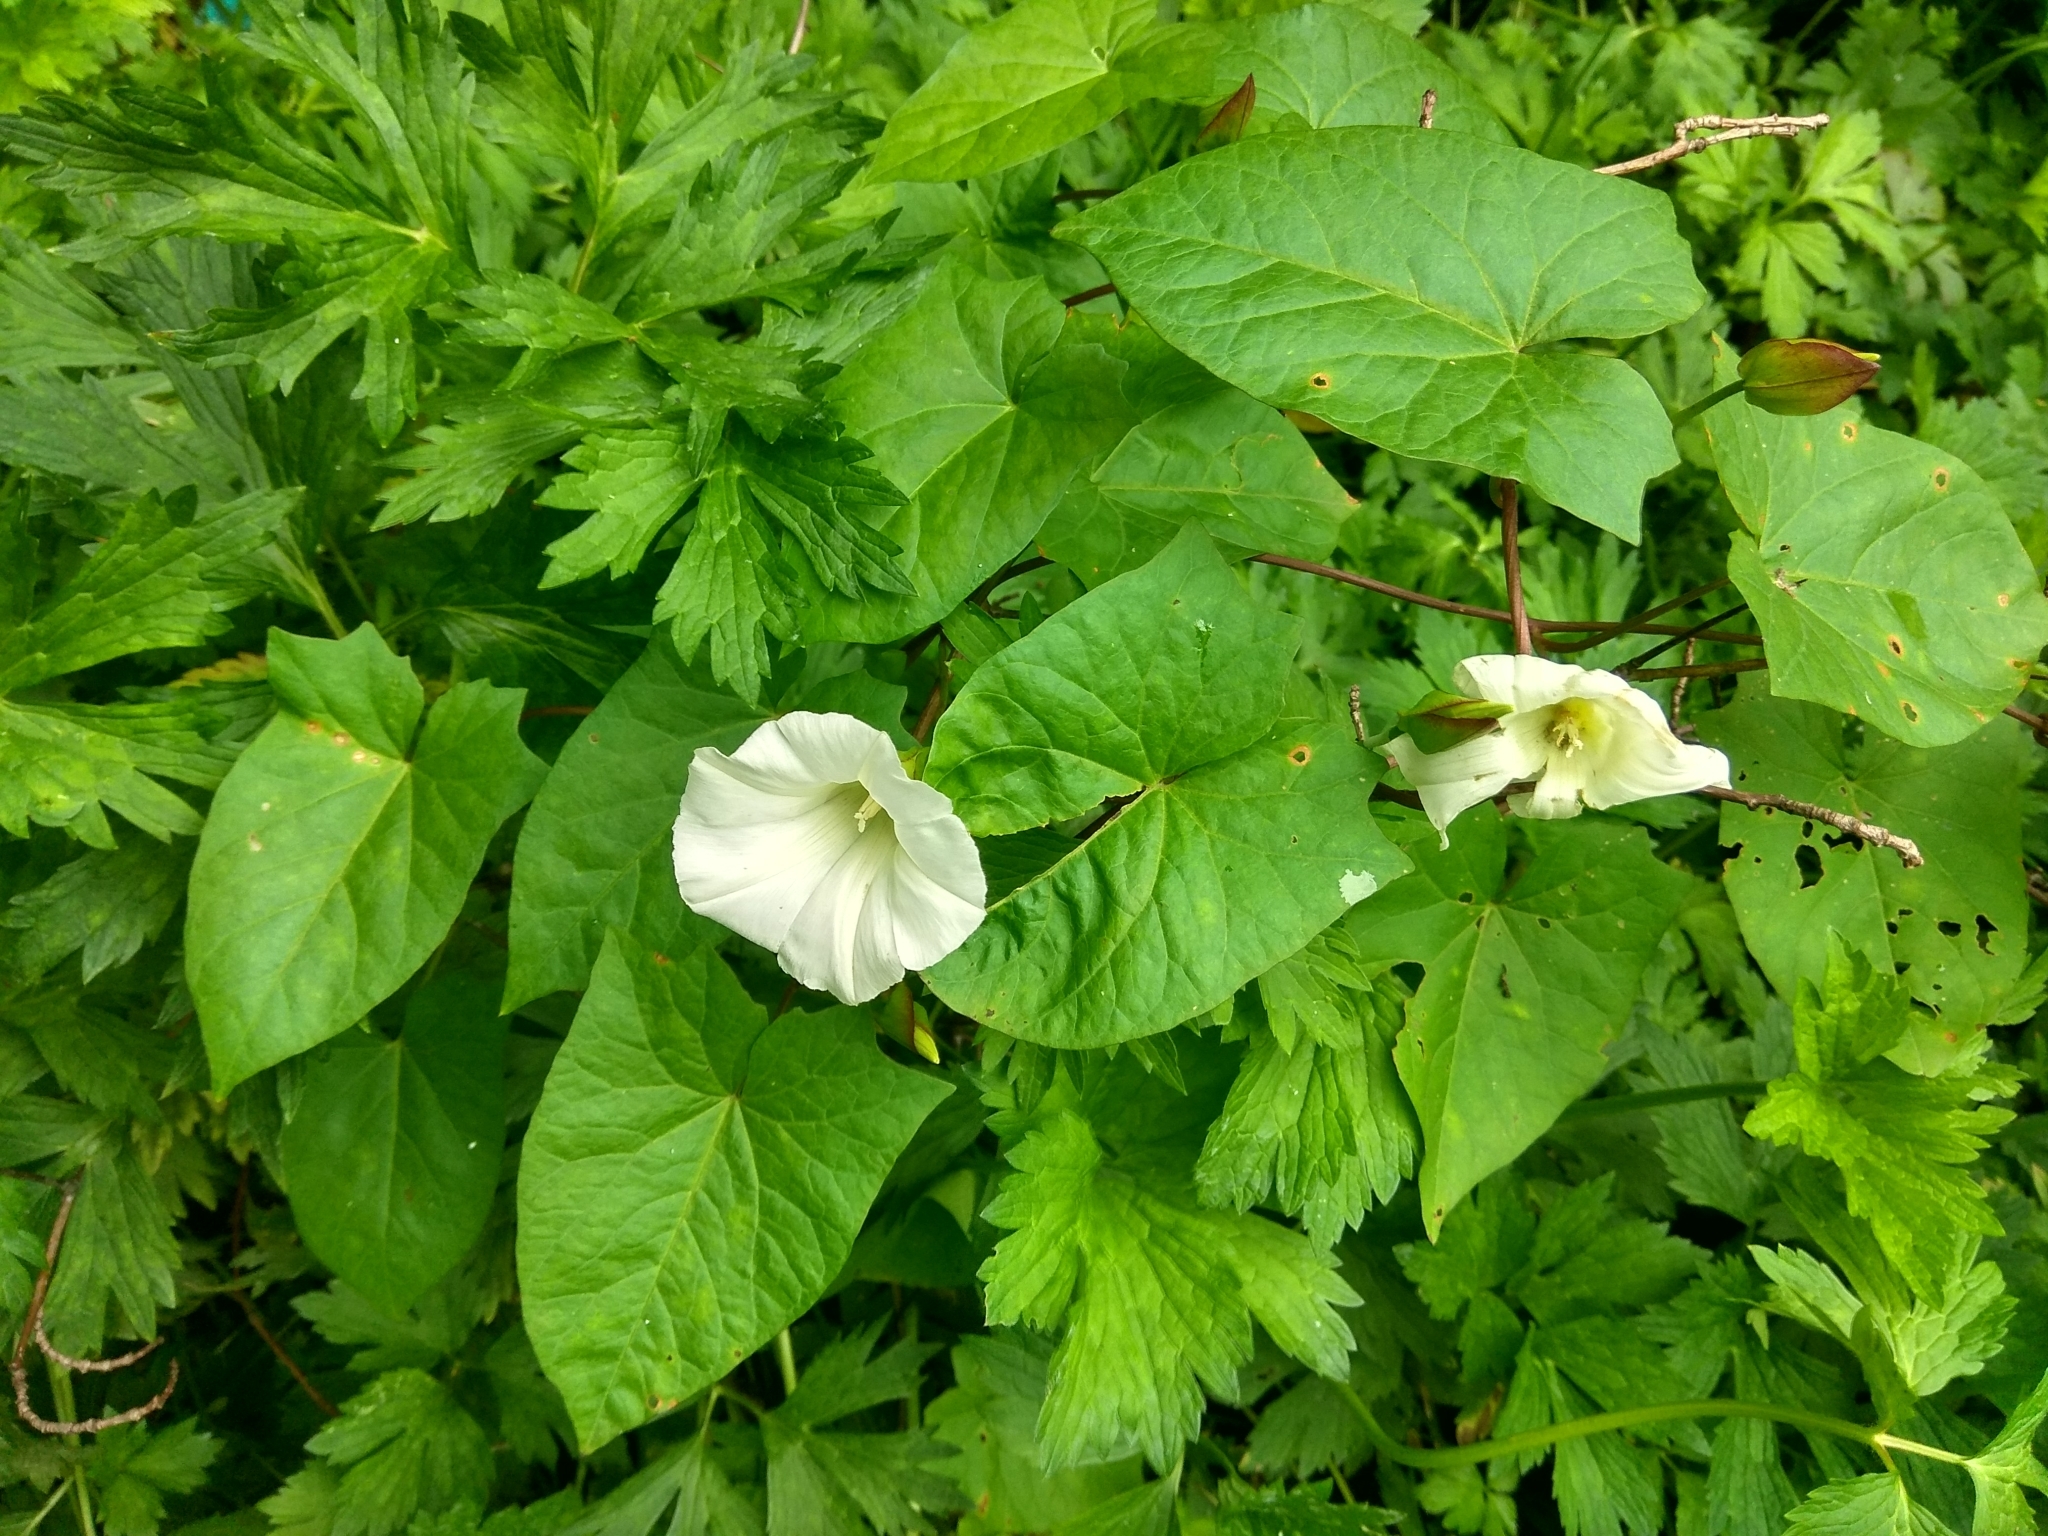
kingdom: Plantae
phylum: Tracheophyta
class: Magnoliopsida
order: Solanales
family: Convolvulaceae
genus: Calystegia
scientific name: Calystegia sepium
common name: Hedge bindweed
